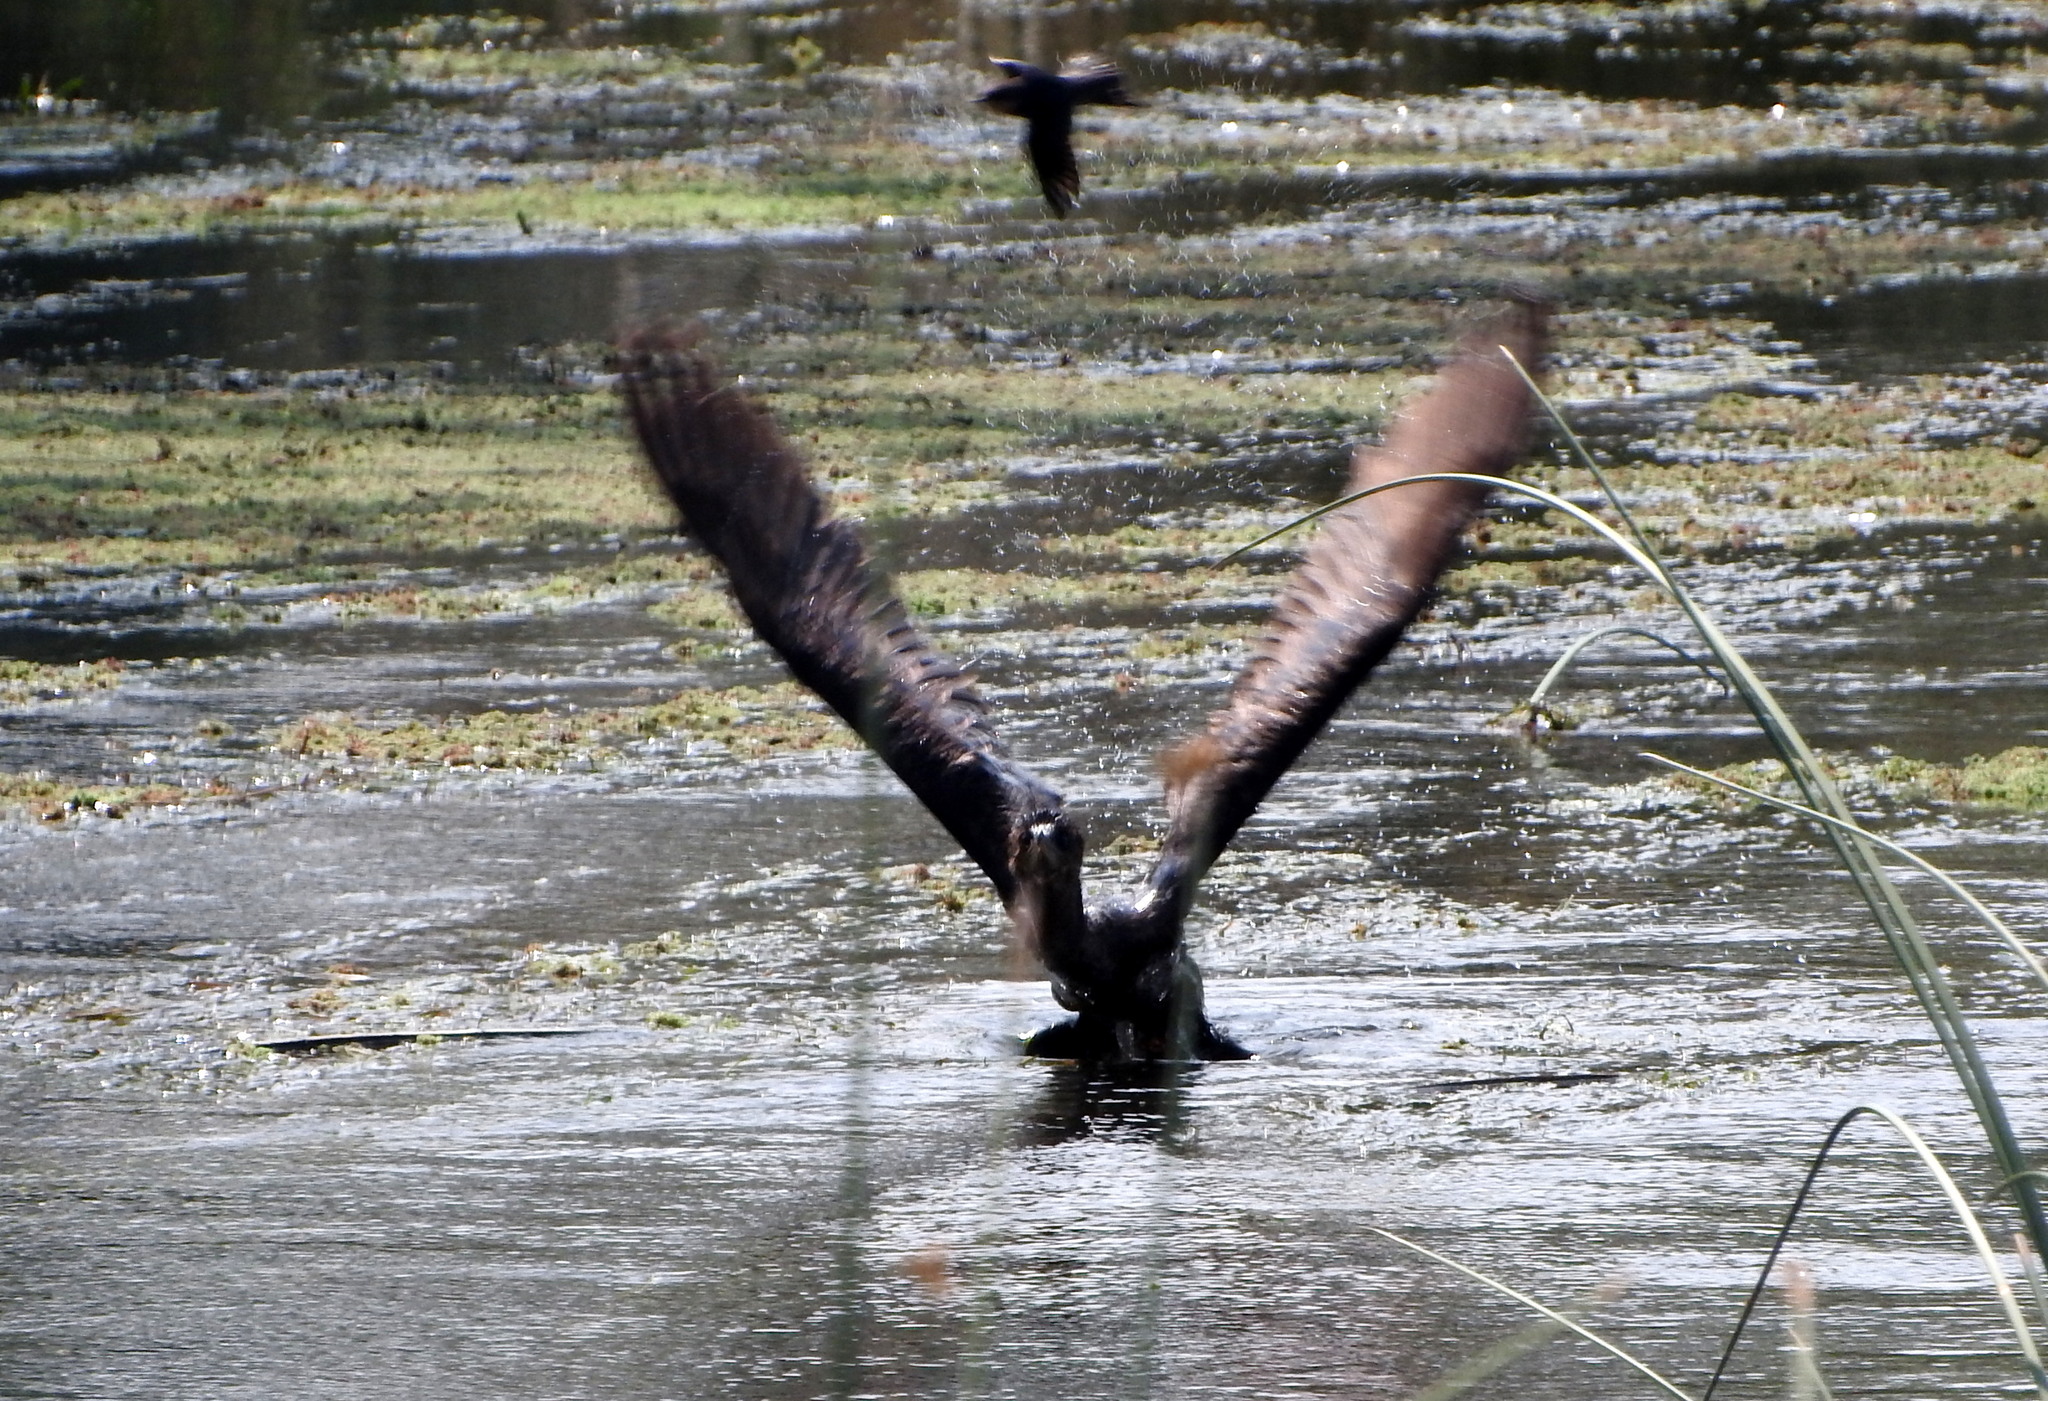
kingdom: Animalia
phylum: Chordata
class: Aves
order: Suliformes
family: Phalacrocoracidae
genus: Phalacrocorax
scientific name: Phalacrocorax brasilianus
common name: Neotropic cormorant
